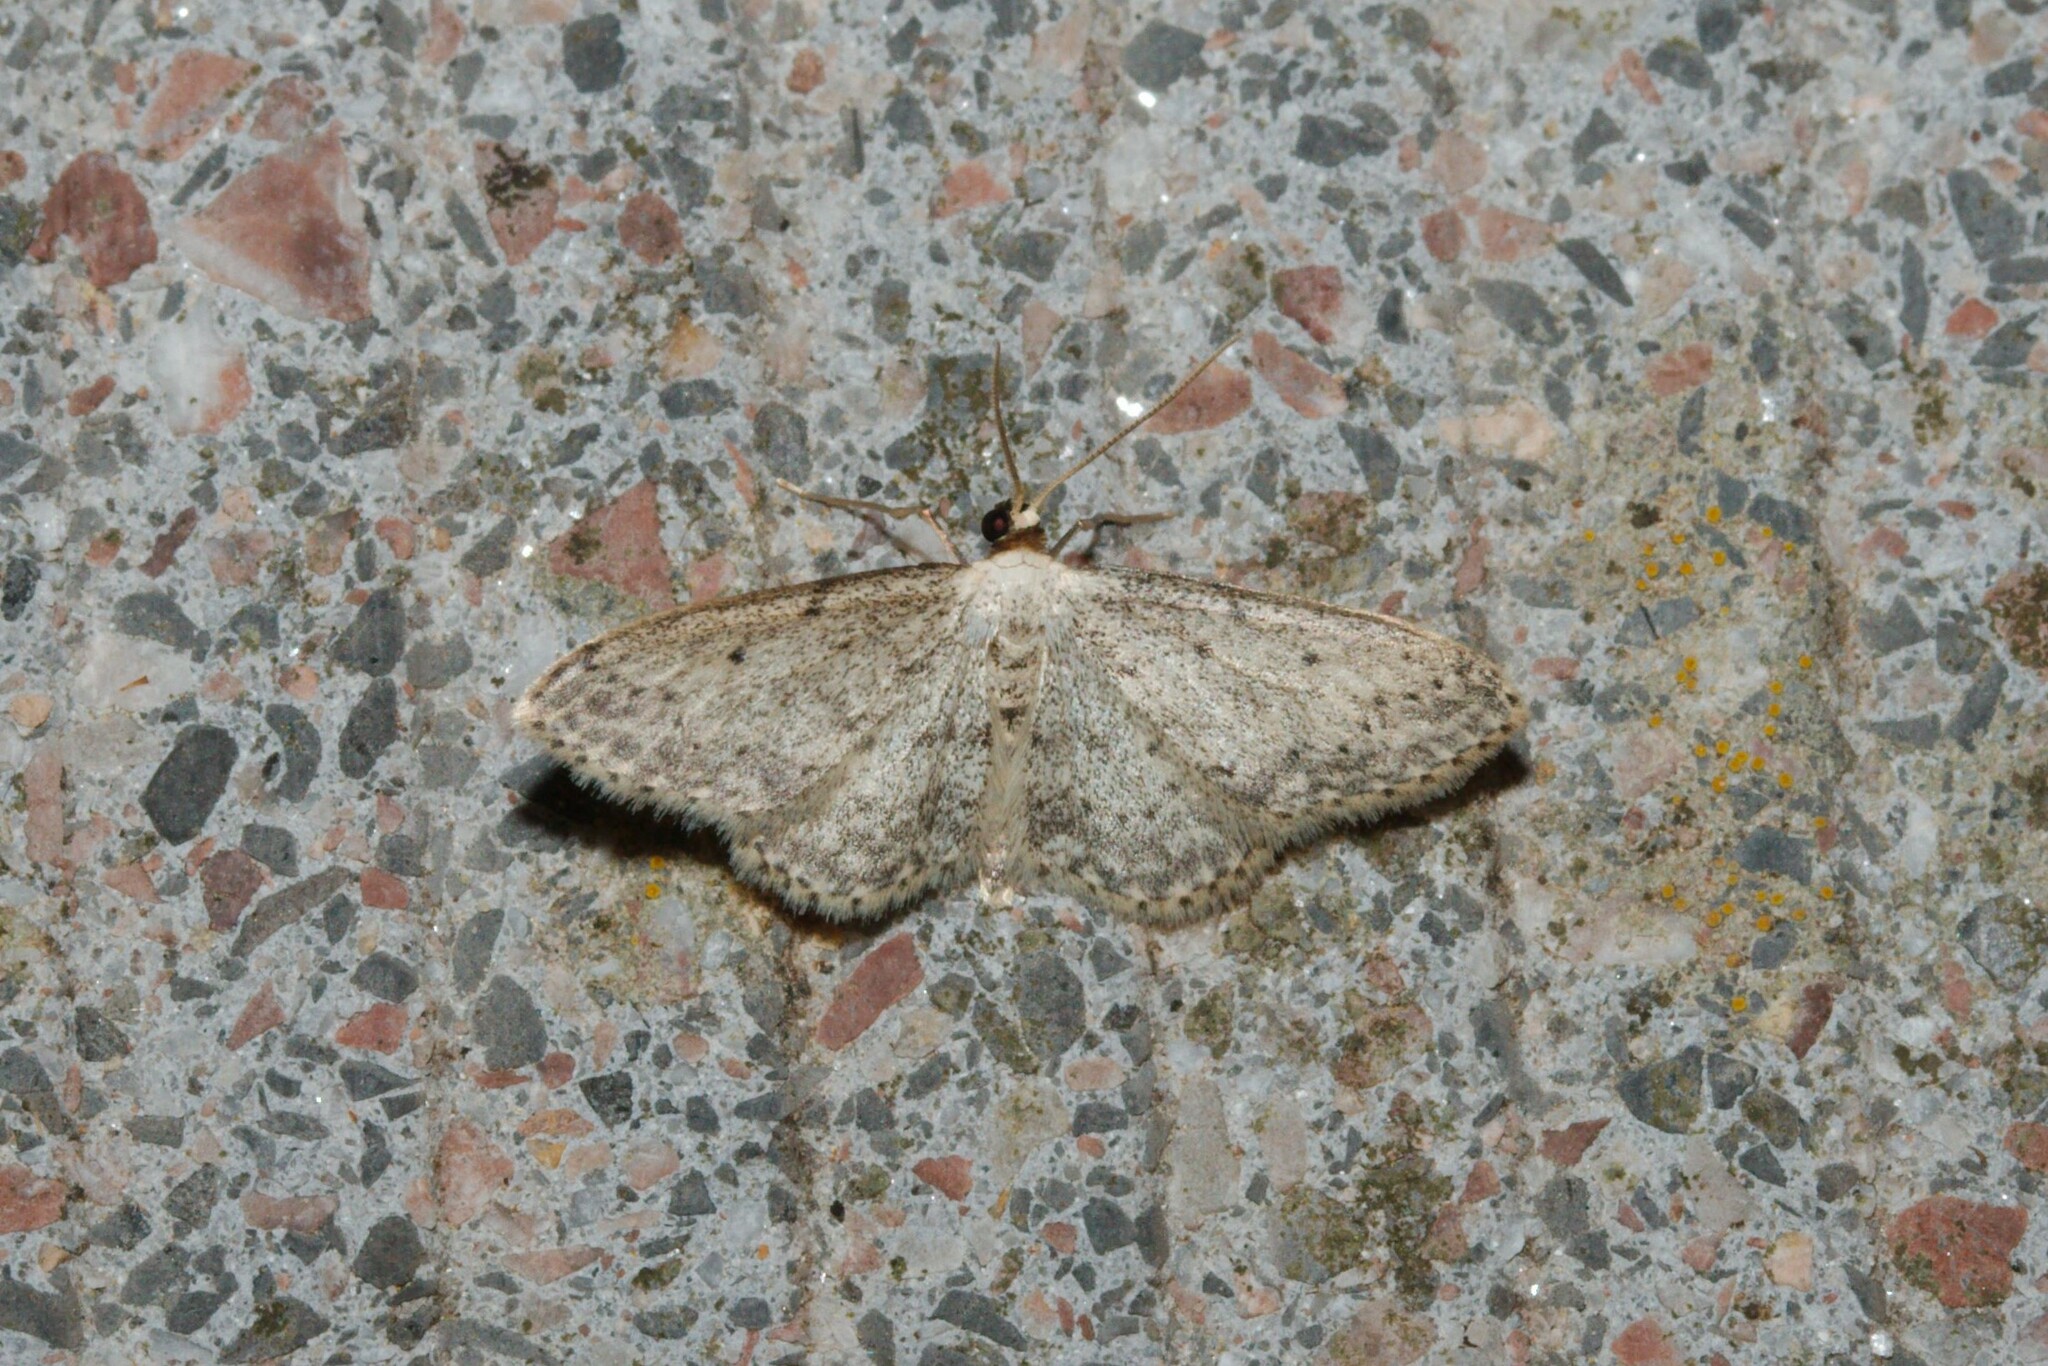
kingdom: Animalia
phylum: Arthropoda
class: Insecta
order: Lepidoptera
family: Geometridae
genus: Idaea
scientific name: Idaea seriata
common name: Small dusty wave
